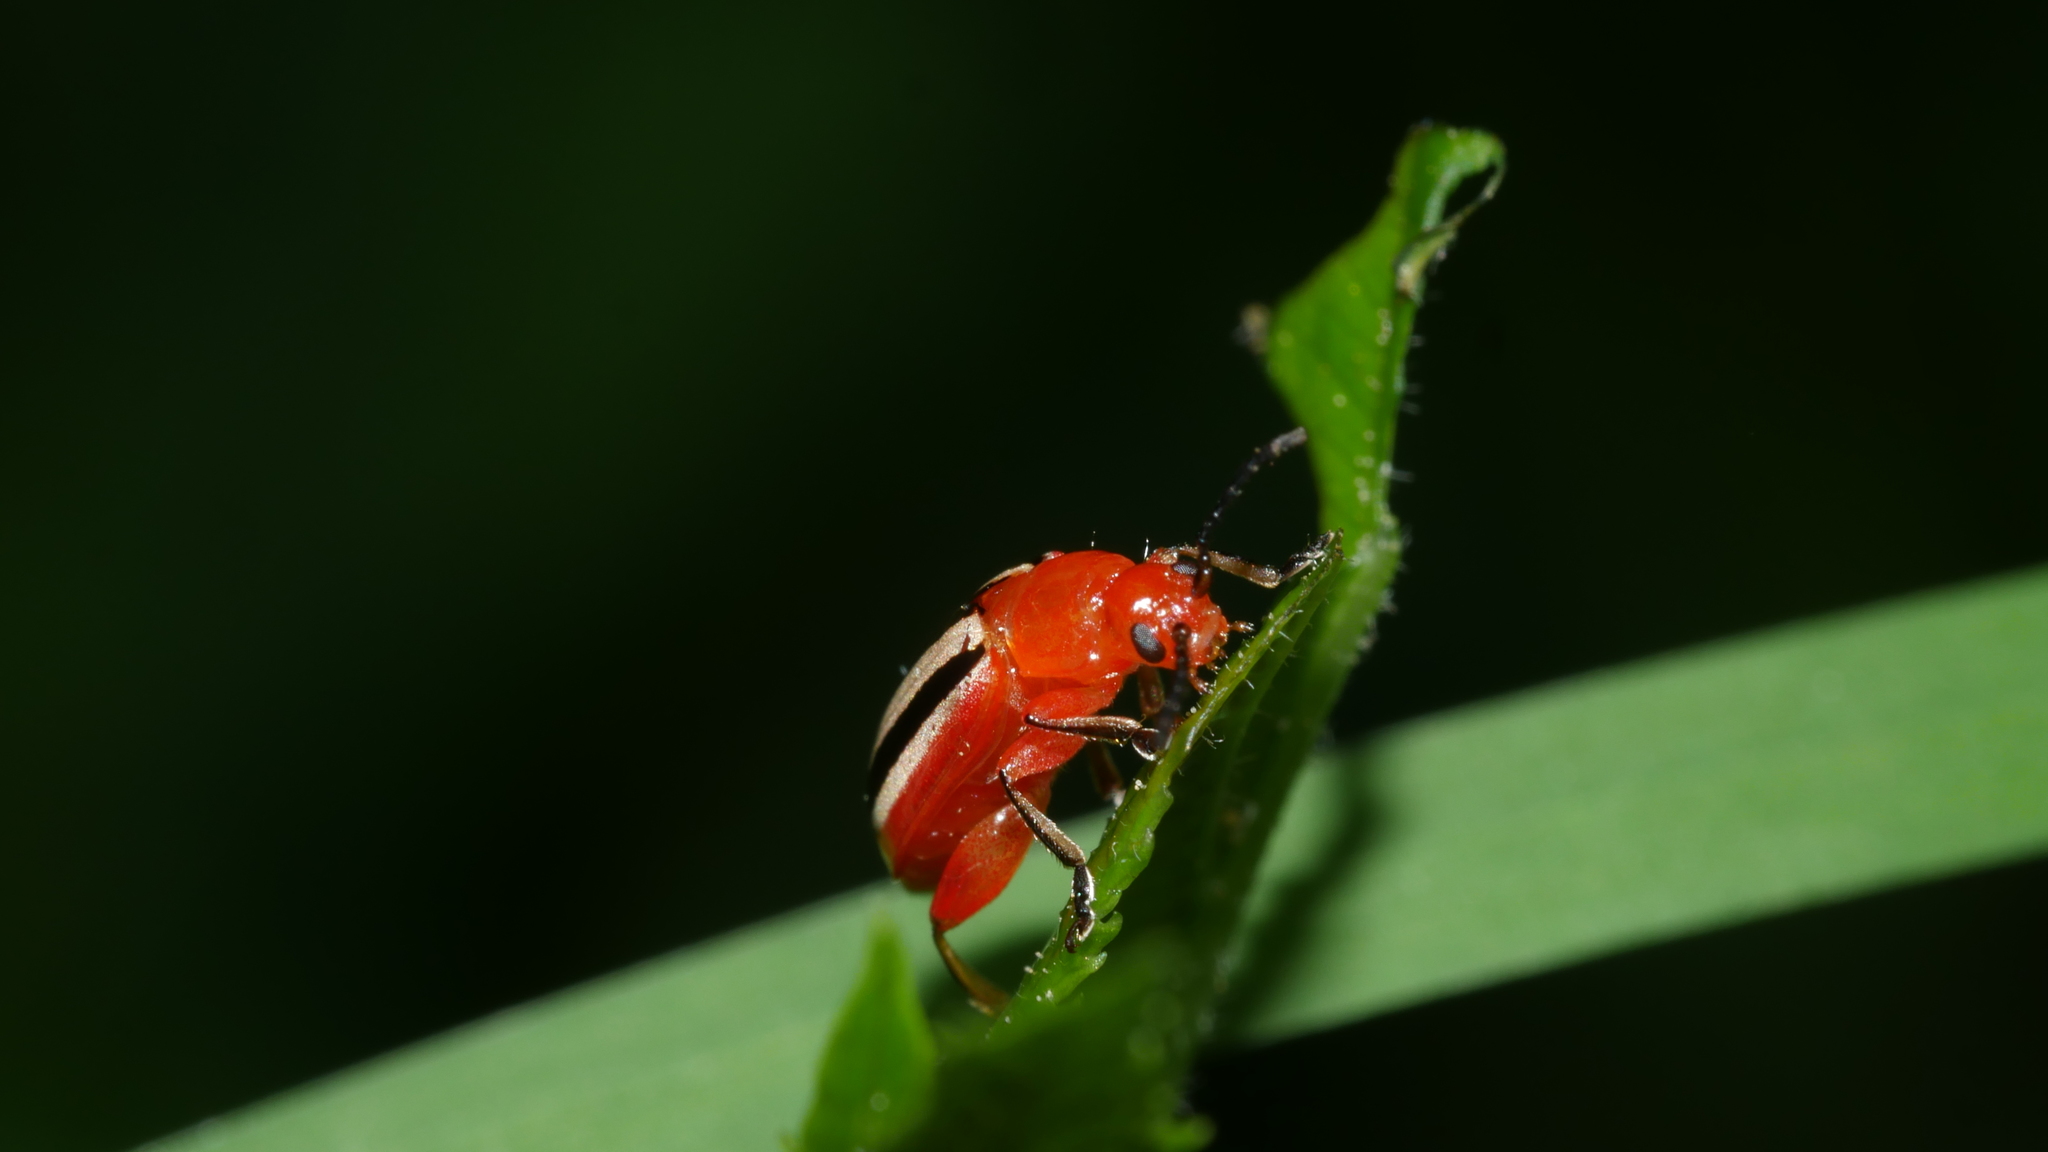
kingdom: Animalia
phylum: Arthropoda
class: Insecta
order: Coleoptera
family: Chrysomelidae
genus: Disonycha
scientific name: Disonycha discoidea
